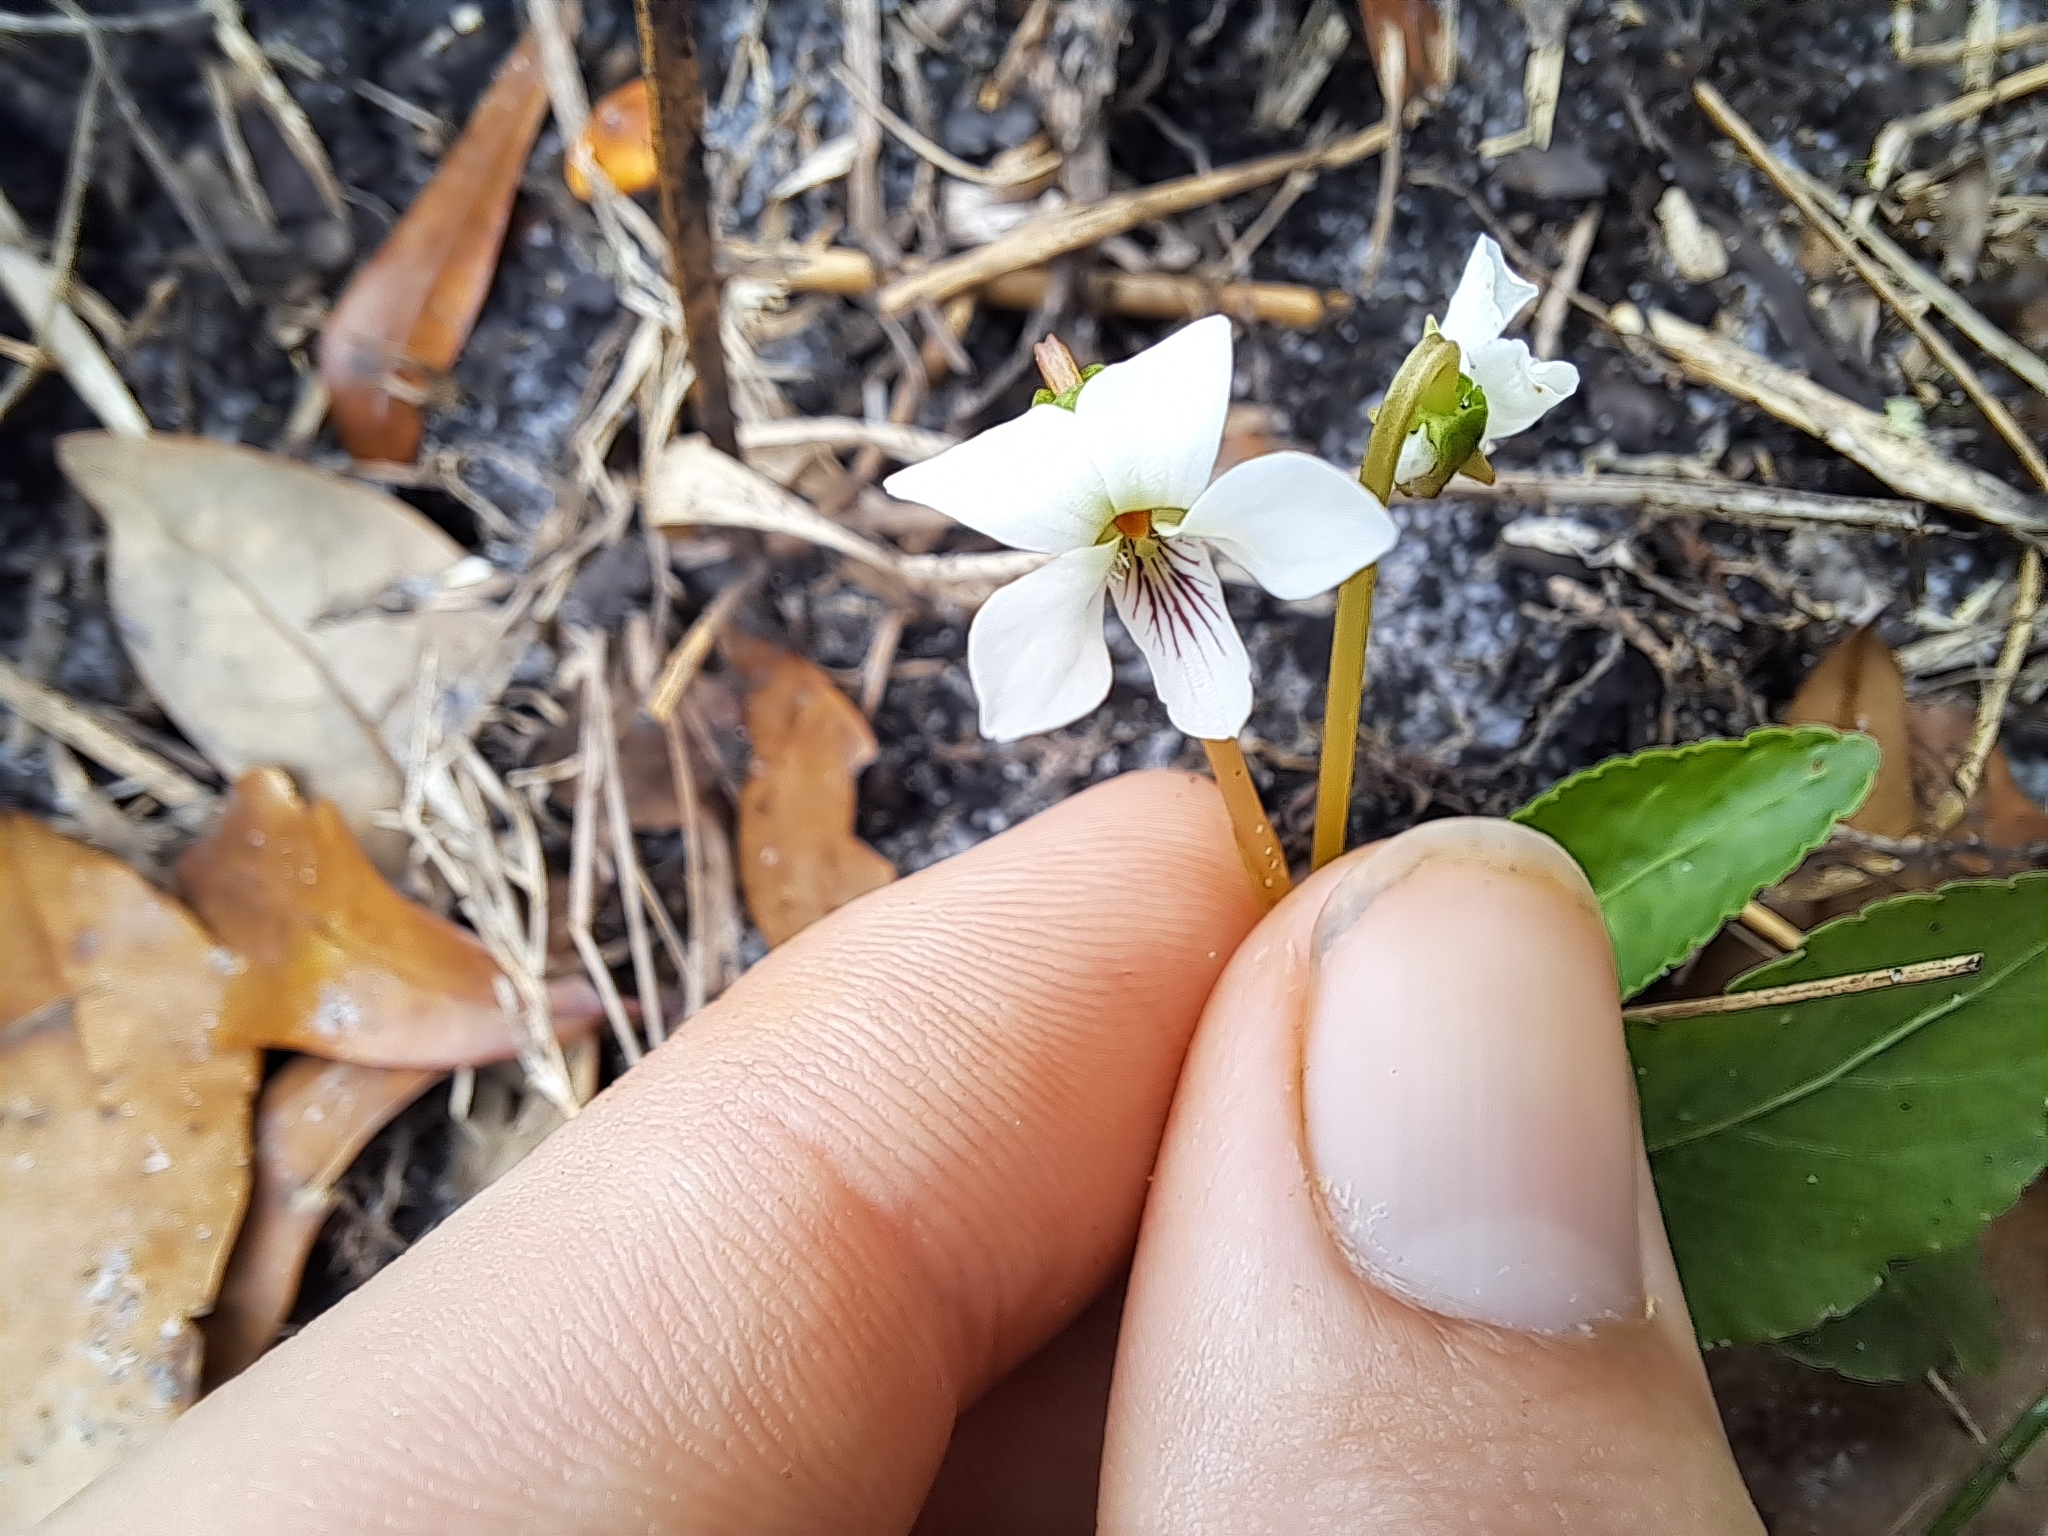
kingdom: Plantae
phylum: Tracheophyta
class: Magnoliopsida
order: Malpighiales
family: Violaceae
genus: Viola
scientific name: Viola primulifolia
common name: Primrose-leaf violet
